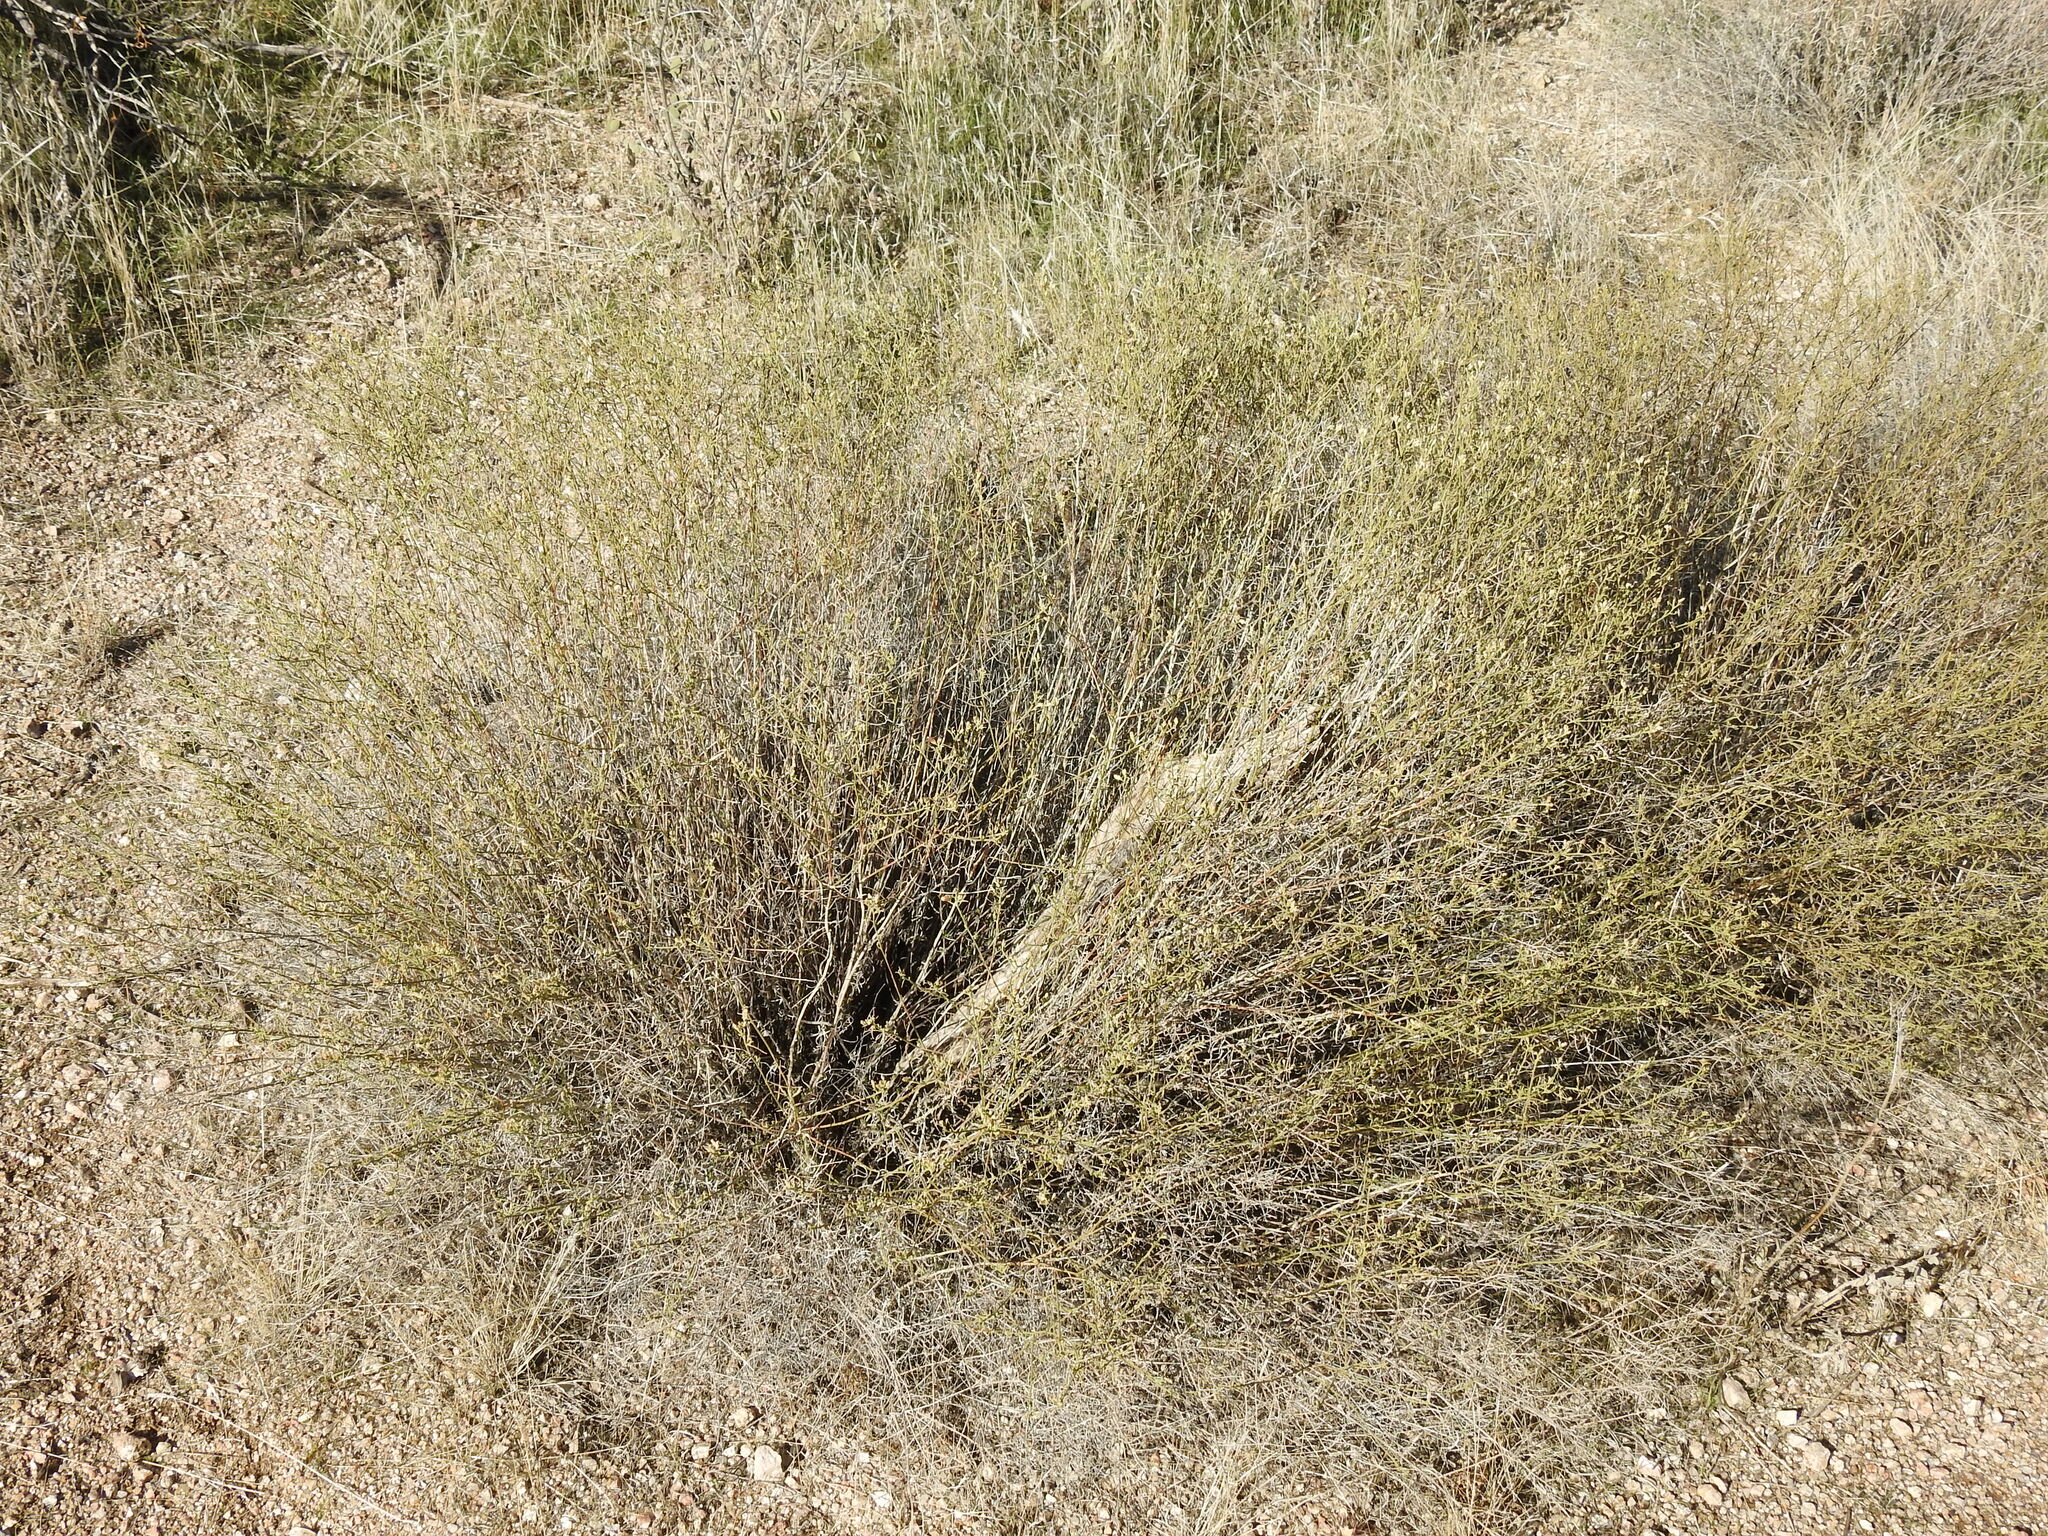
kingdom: Plantae
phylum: Tracheophyta
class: Magnoliopsida
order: Asterales
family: Asteraceae
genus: Gutierrezia
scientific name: Gutierrezia sarothrae
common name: Broom snakeweed
